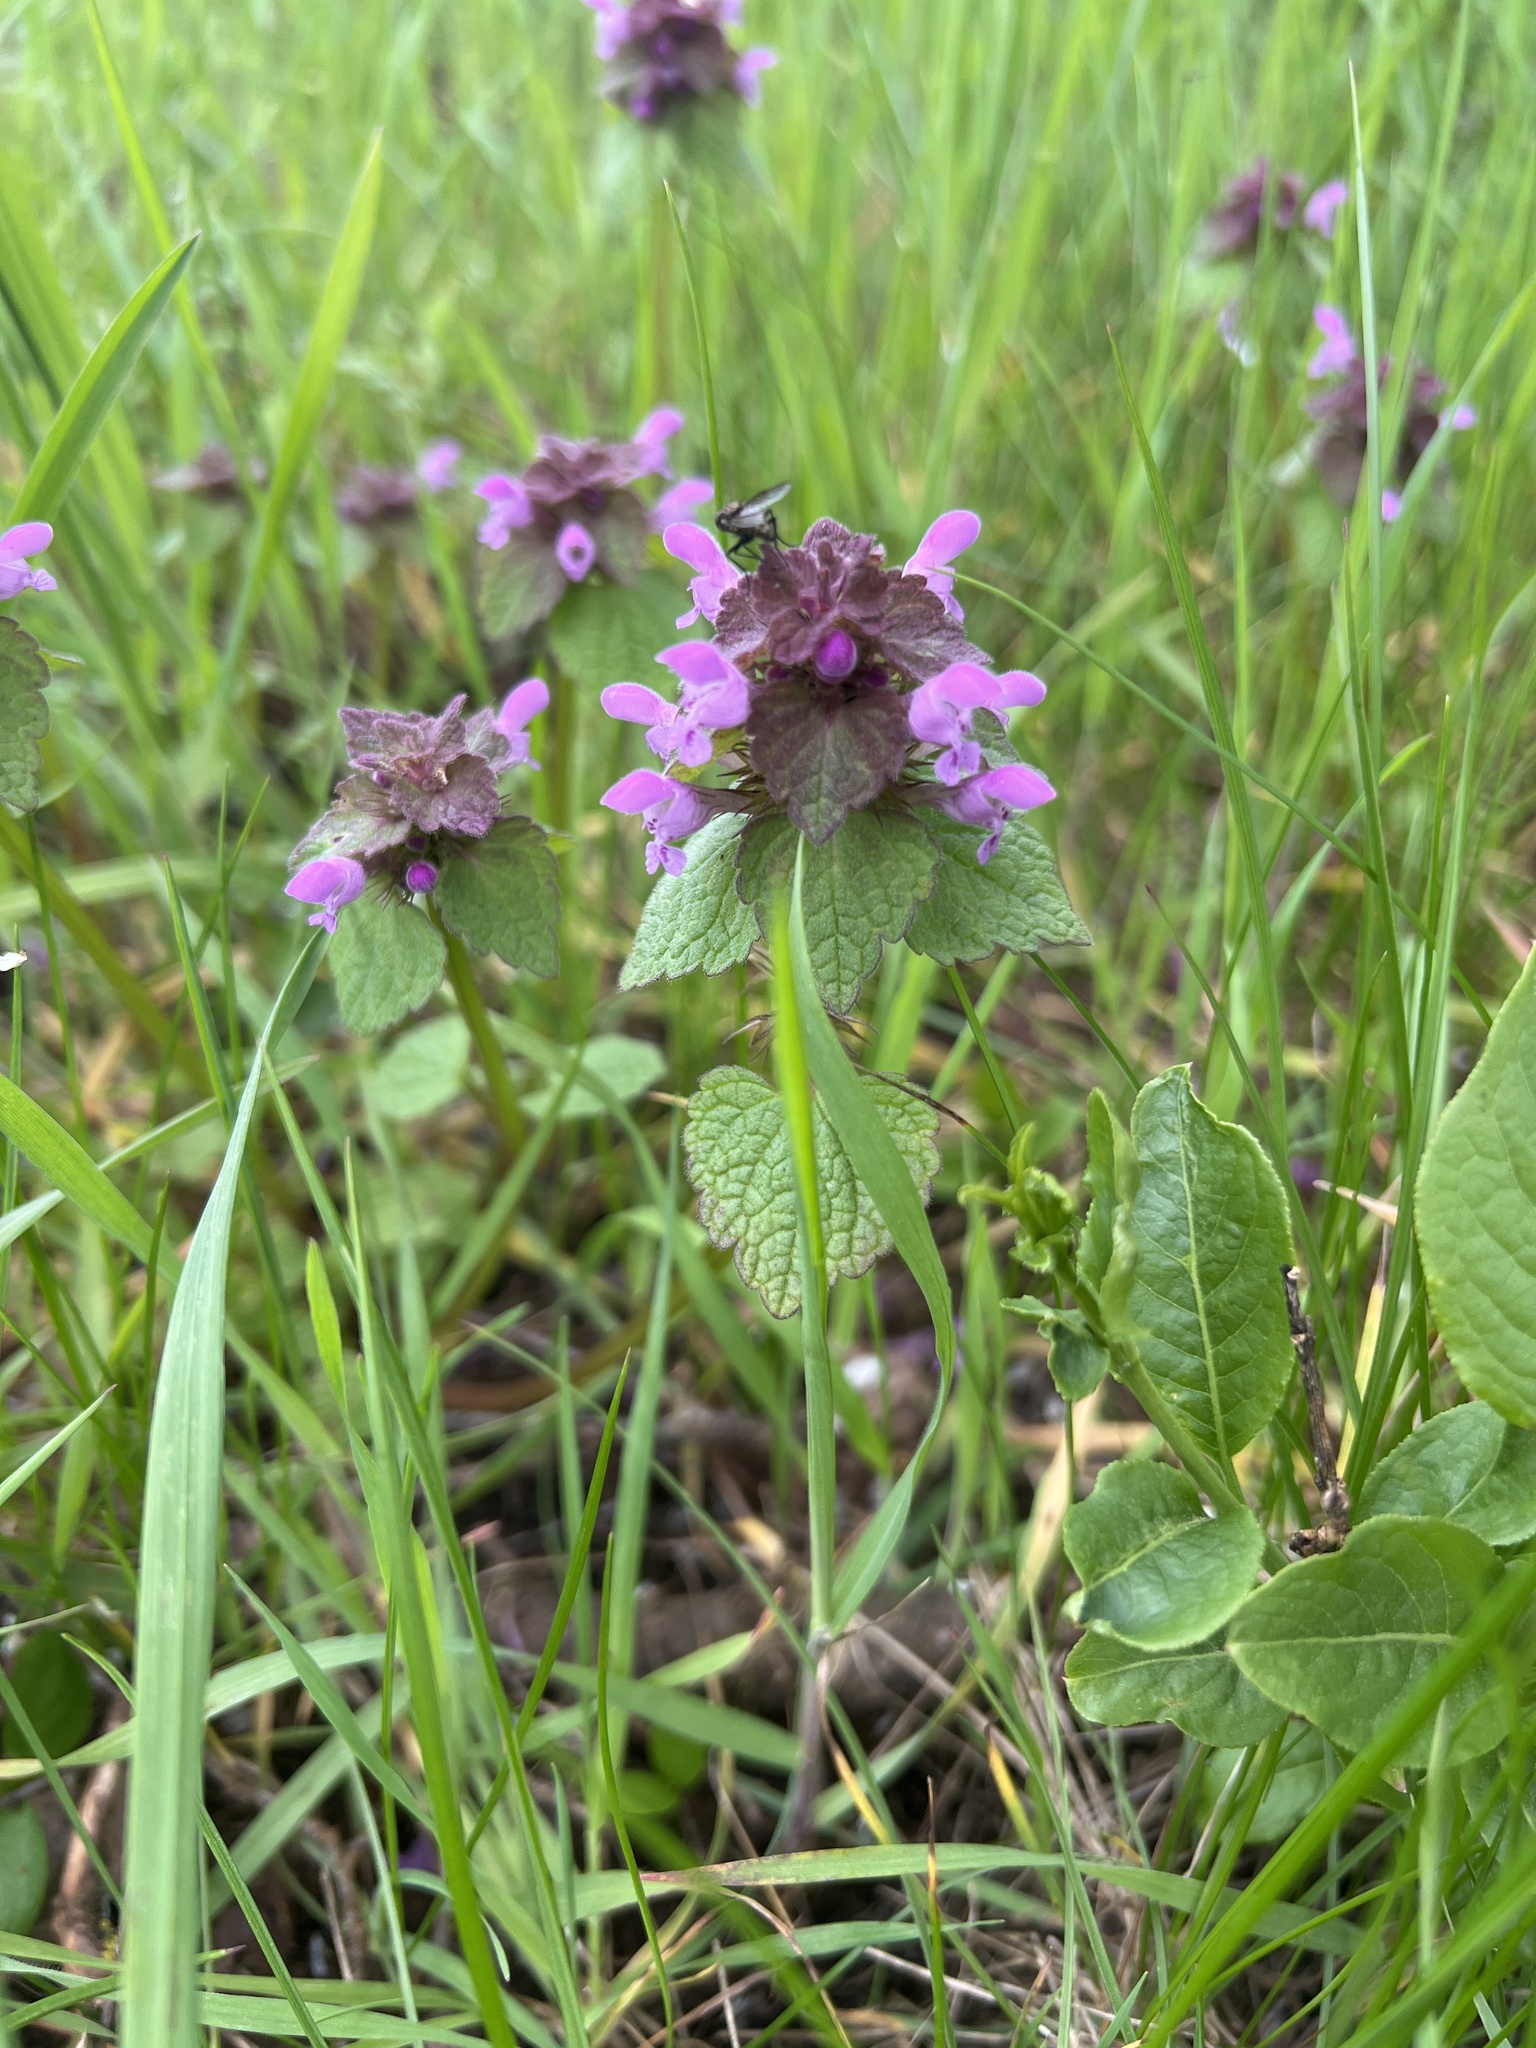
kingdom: Plantae
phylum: Tracheophyta
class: Magnoliopsida
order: Lamiales
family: Lamiaceae
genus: Lamium
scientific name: Lamium purpureum
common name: Red dead-nettle
